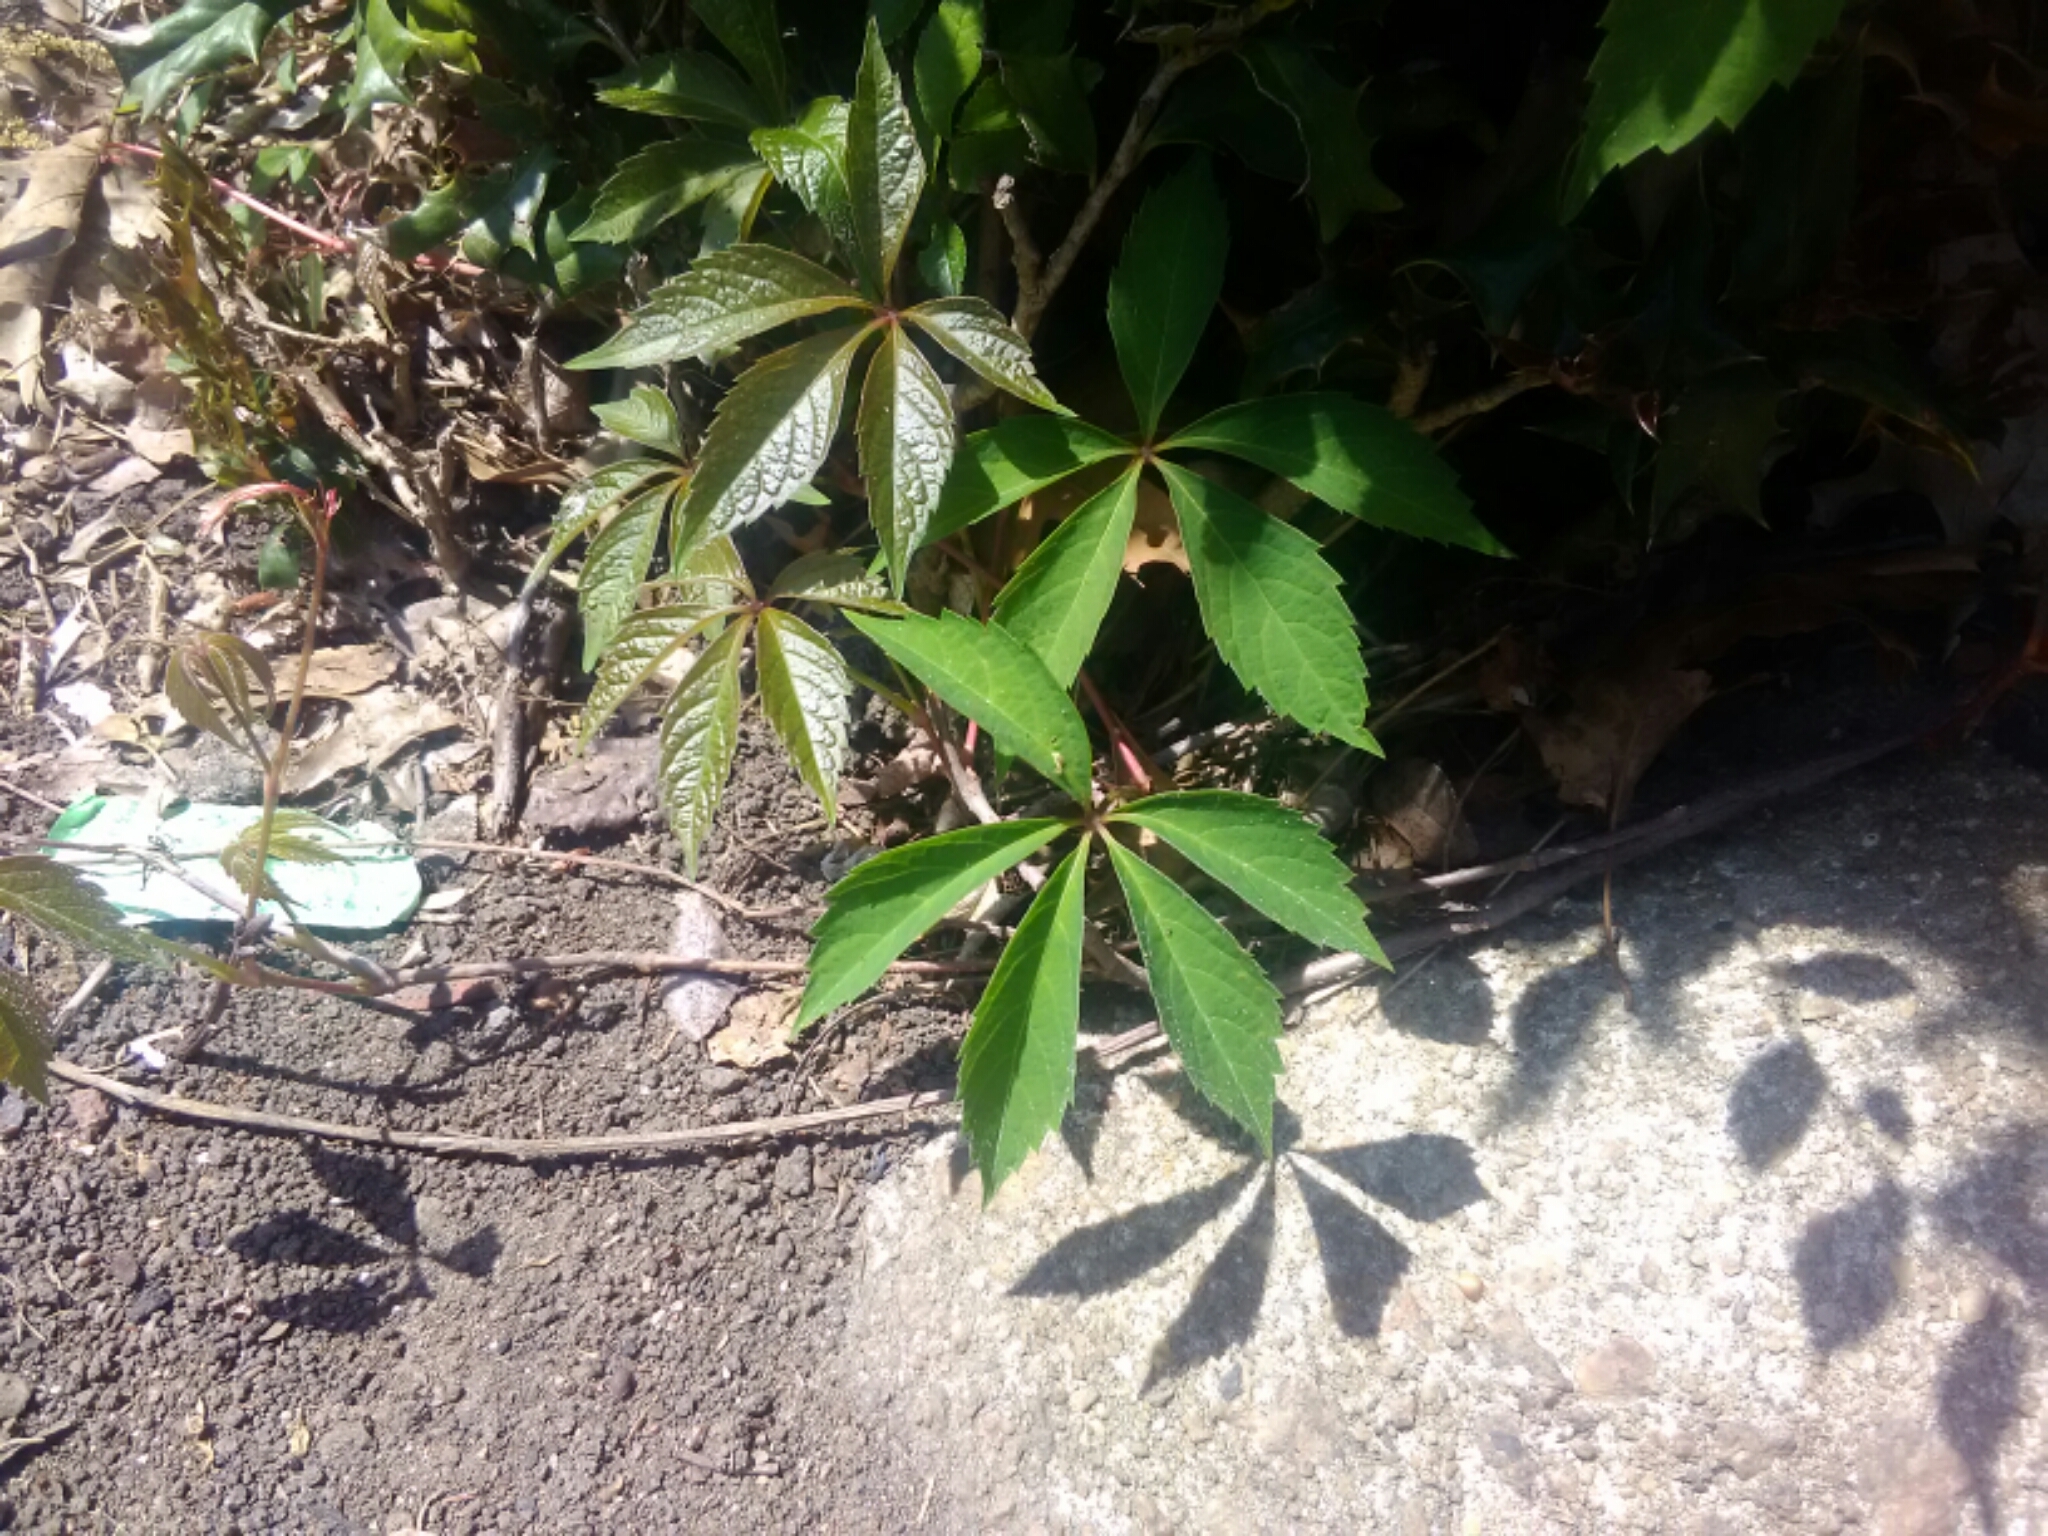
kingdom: Plantae
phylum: Tracheophyta
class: Magnoliopsida
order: Vitales
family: Vitaceae
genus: Parthenocissus
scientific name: Parthenocissus quinquefolia
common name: Virginia-creeper
